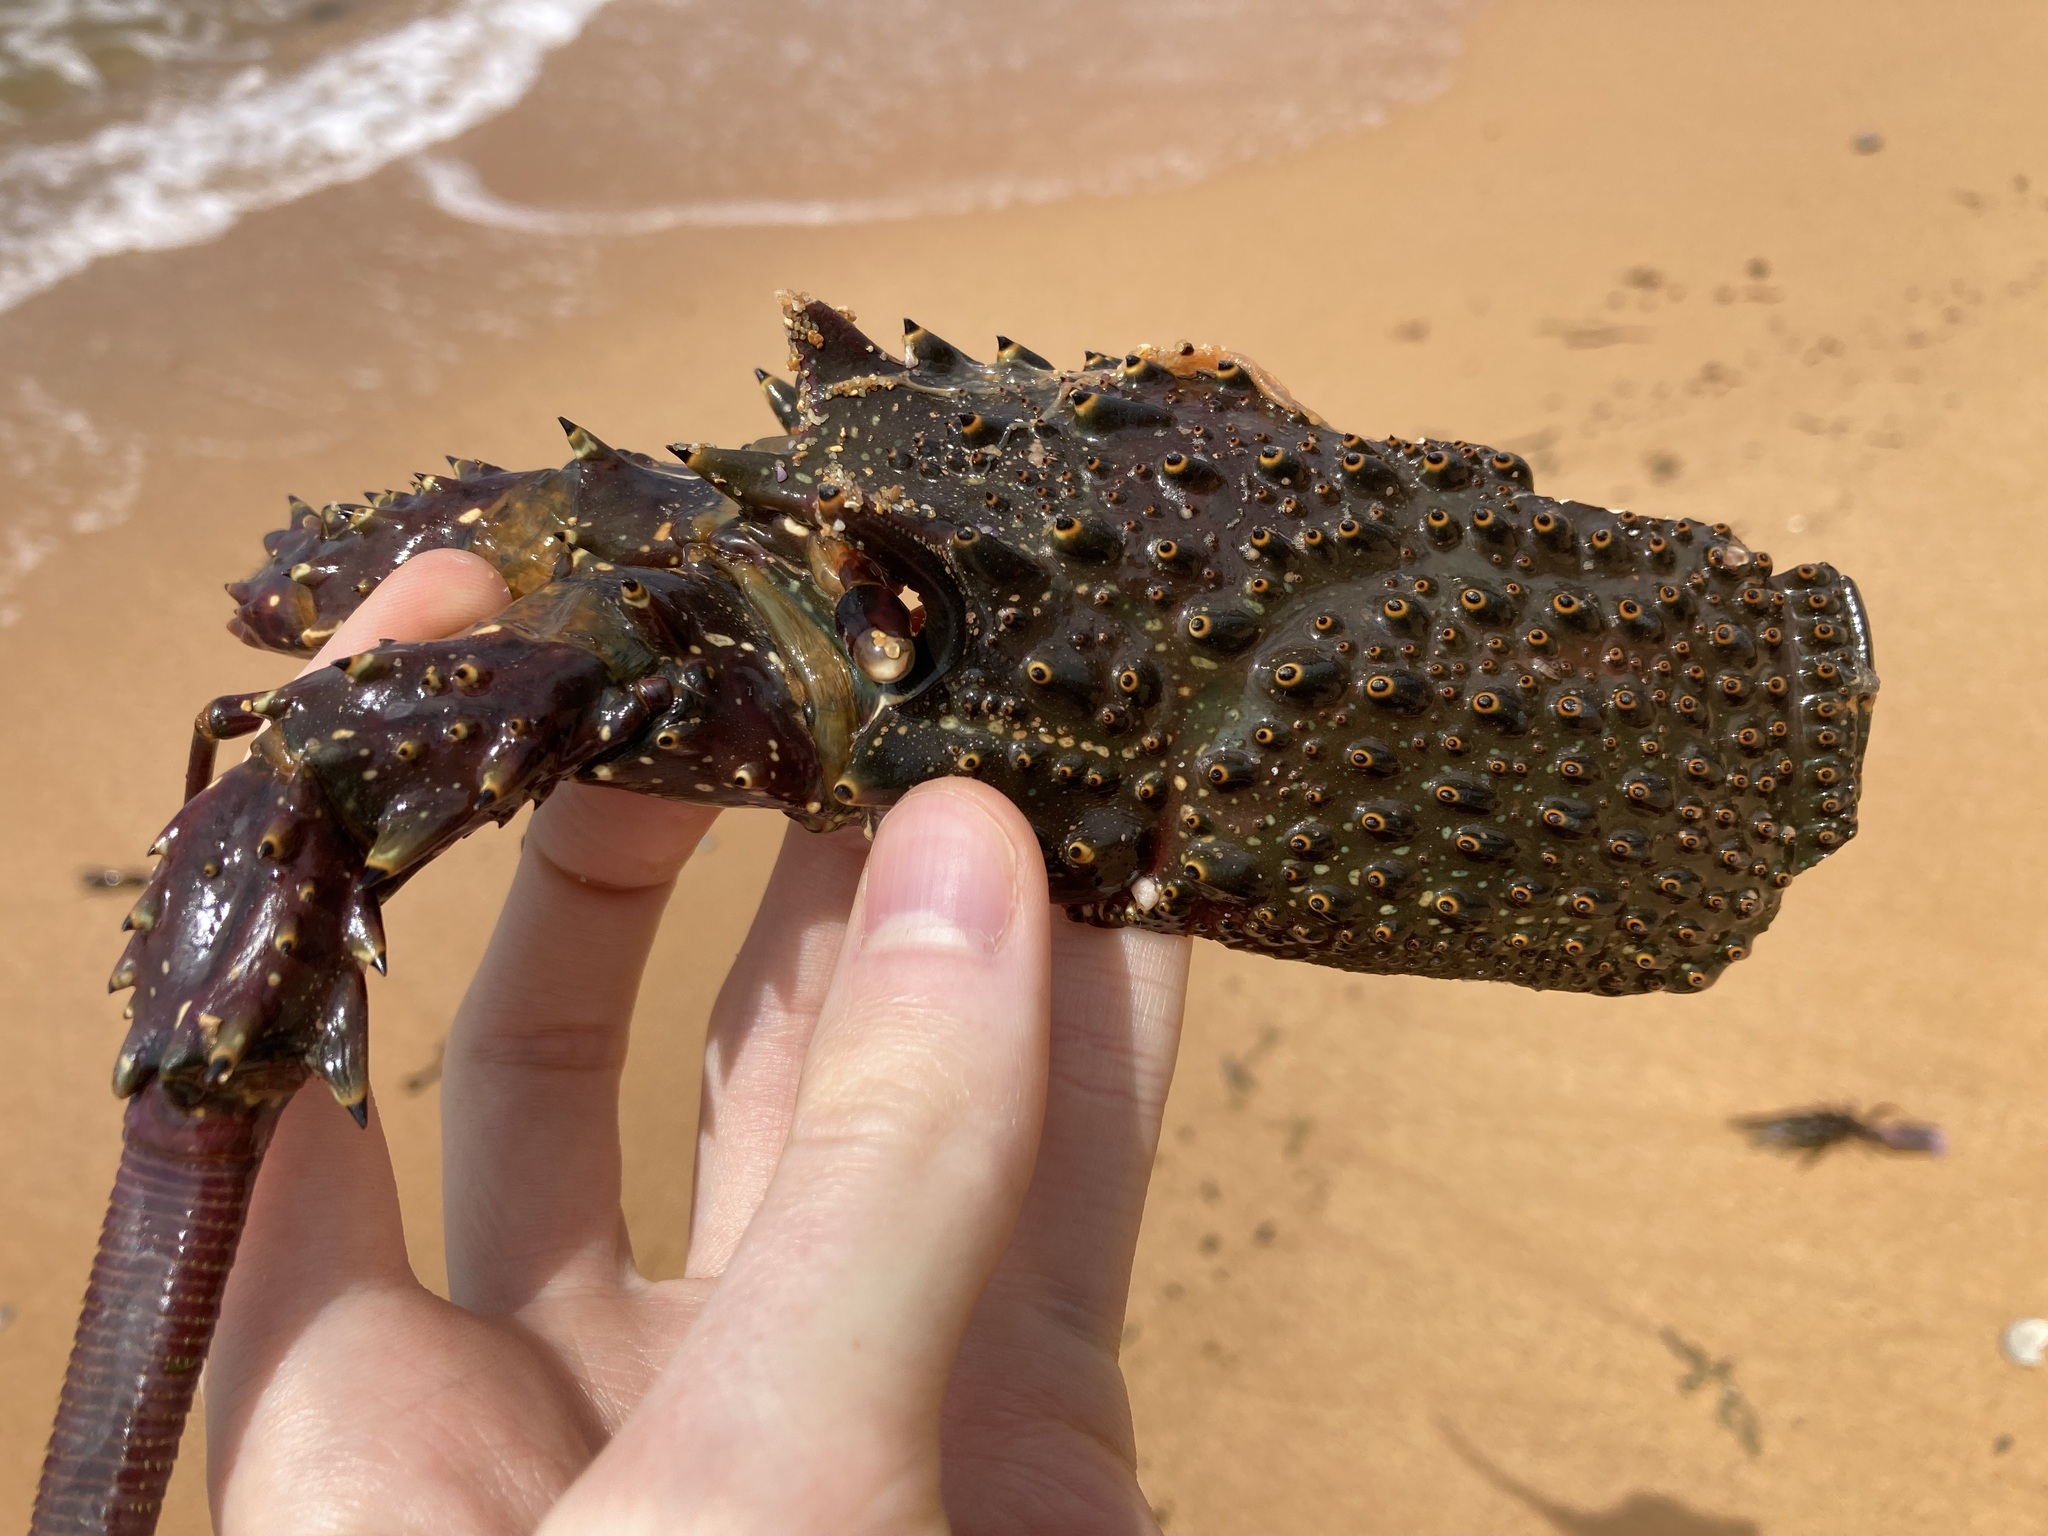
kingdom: Animalia
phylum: Arthropoda
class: Malacostraca
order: Decapoda
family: Palinuridae
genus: Sagmariasus
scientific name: Sagmariasus verreauxi
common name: Green rock lobster
